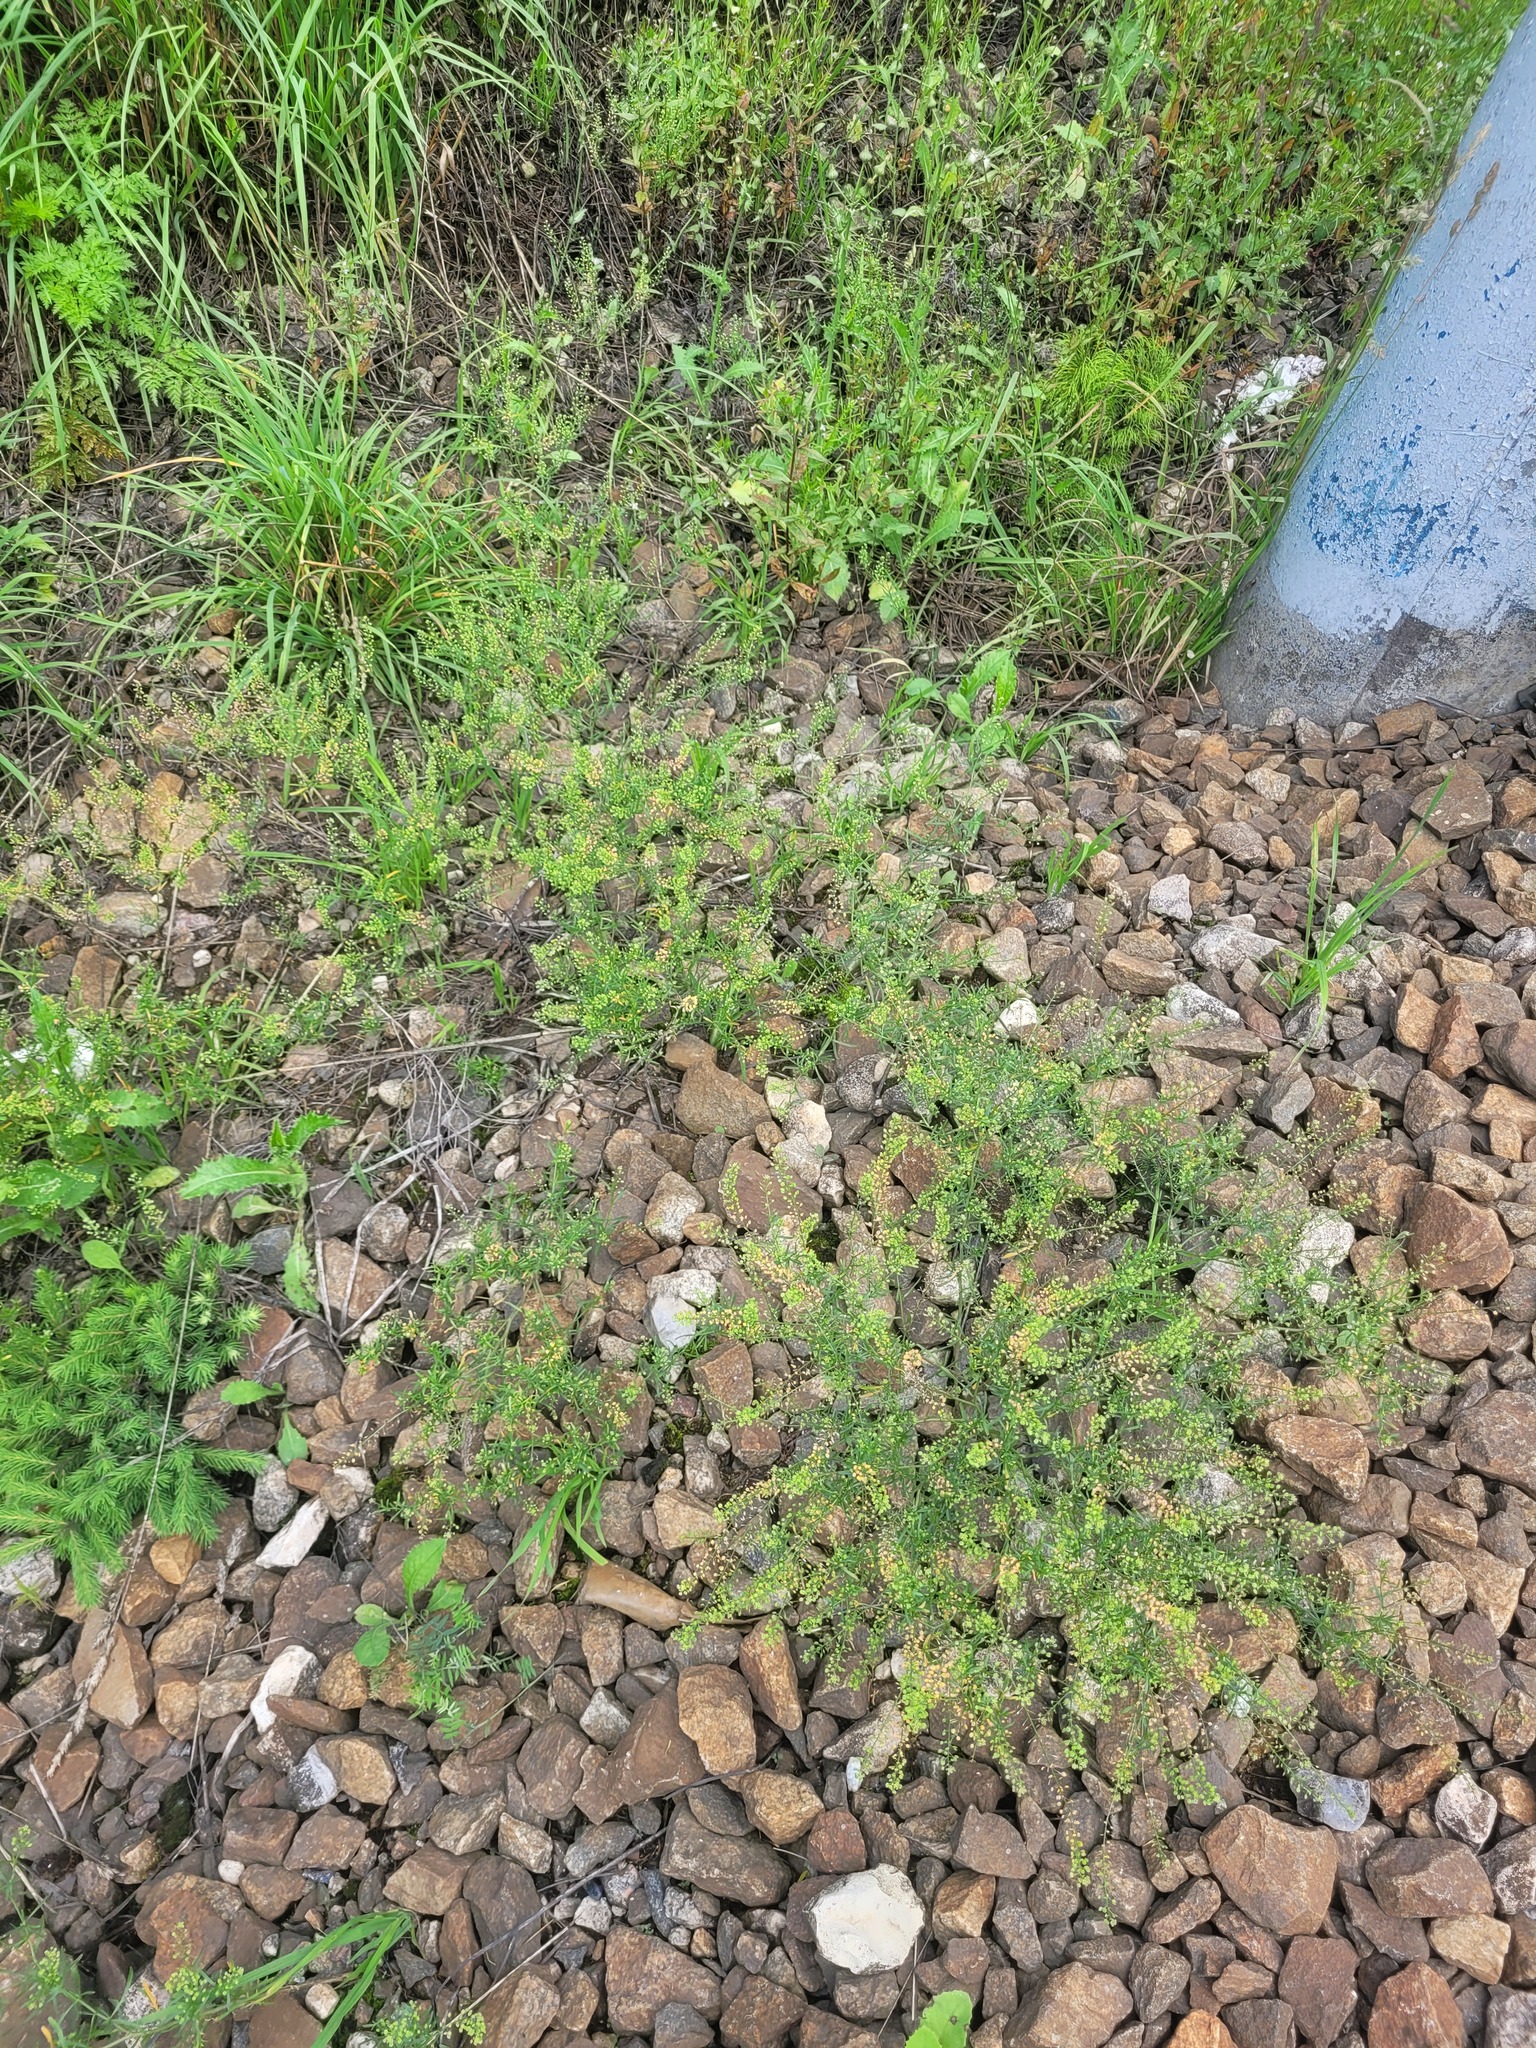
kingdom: Plantae
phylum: Tracheophyta
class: Magnoliopsida
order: Brassicales
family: Brassicaceae
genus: Lepidium
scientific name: Lepidium ruderale
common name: Narrow-leaved pepperwort
